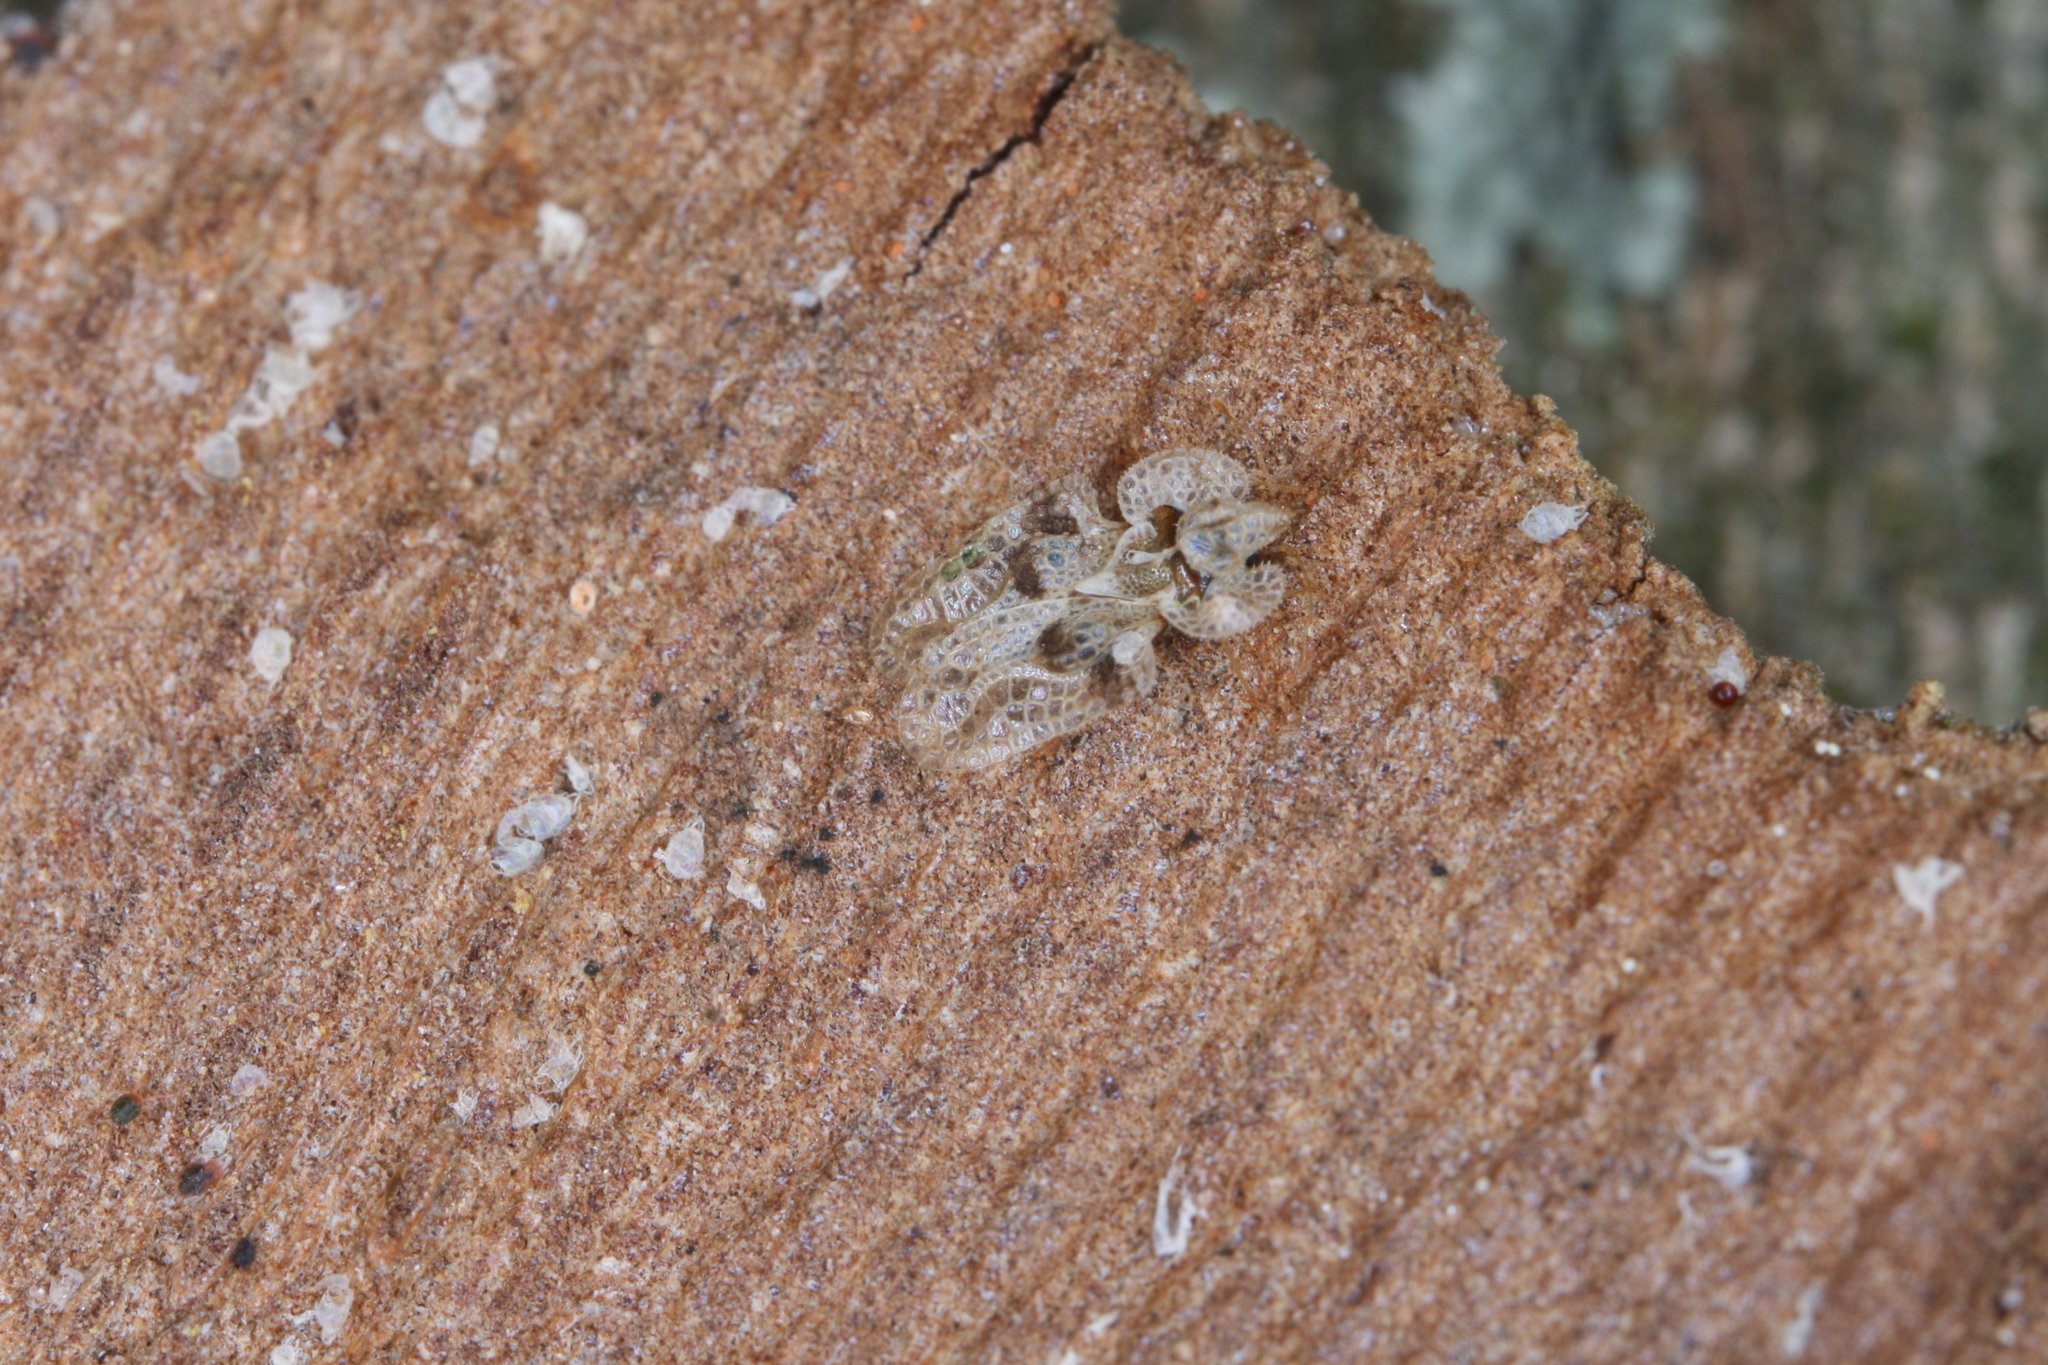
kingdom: Animalia
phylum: Arthropoda
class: Insecta
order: Hemiptera
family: Tingidae
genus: Corythucha
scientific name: Corythucha ciliata
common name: Sycamore lace bug
